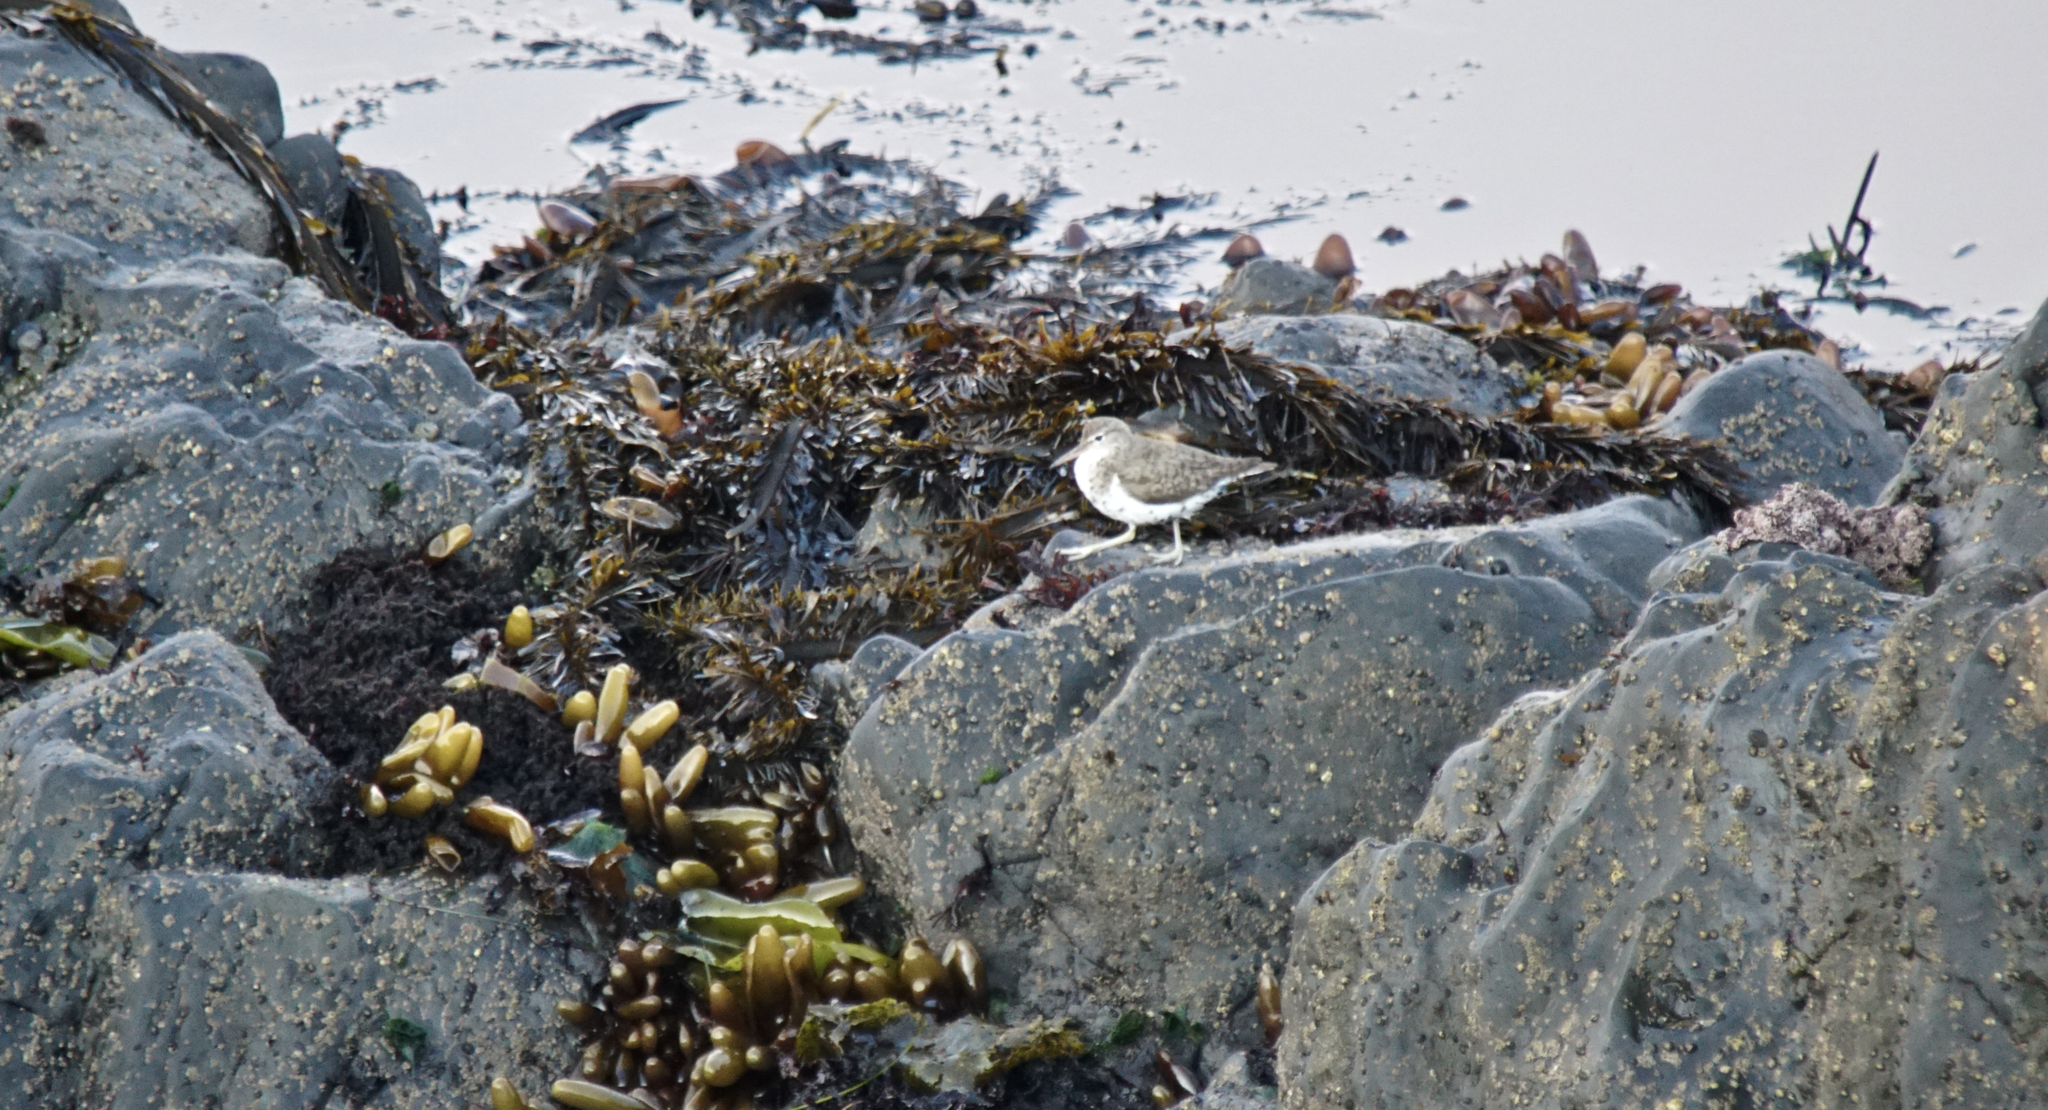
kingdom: Animalia
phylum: Chordata
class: Aves
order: Charadriiformes
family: Scolopacidae
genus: Actitis
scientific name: Actitis macularius
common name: Spotted sandpiper
